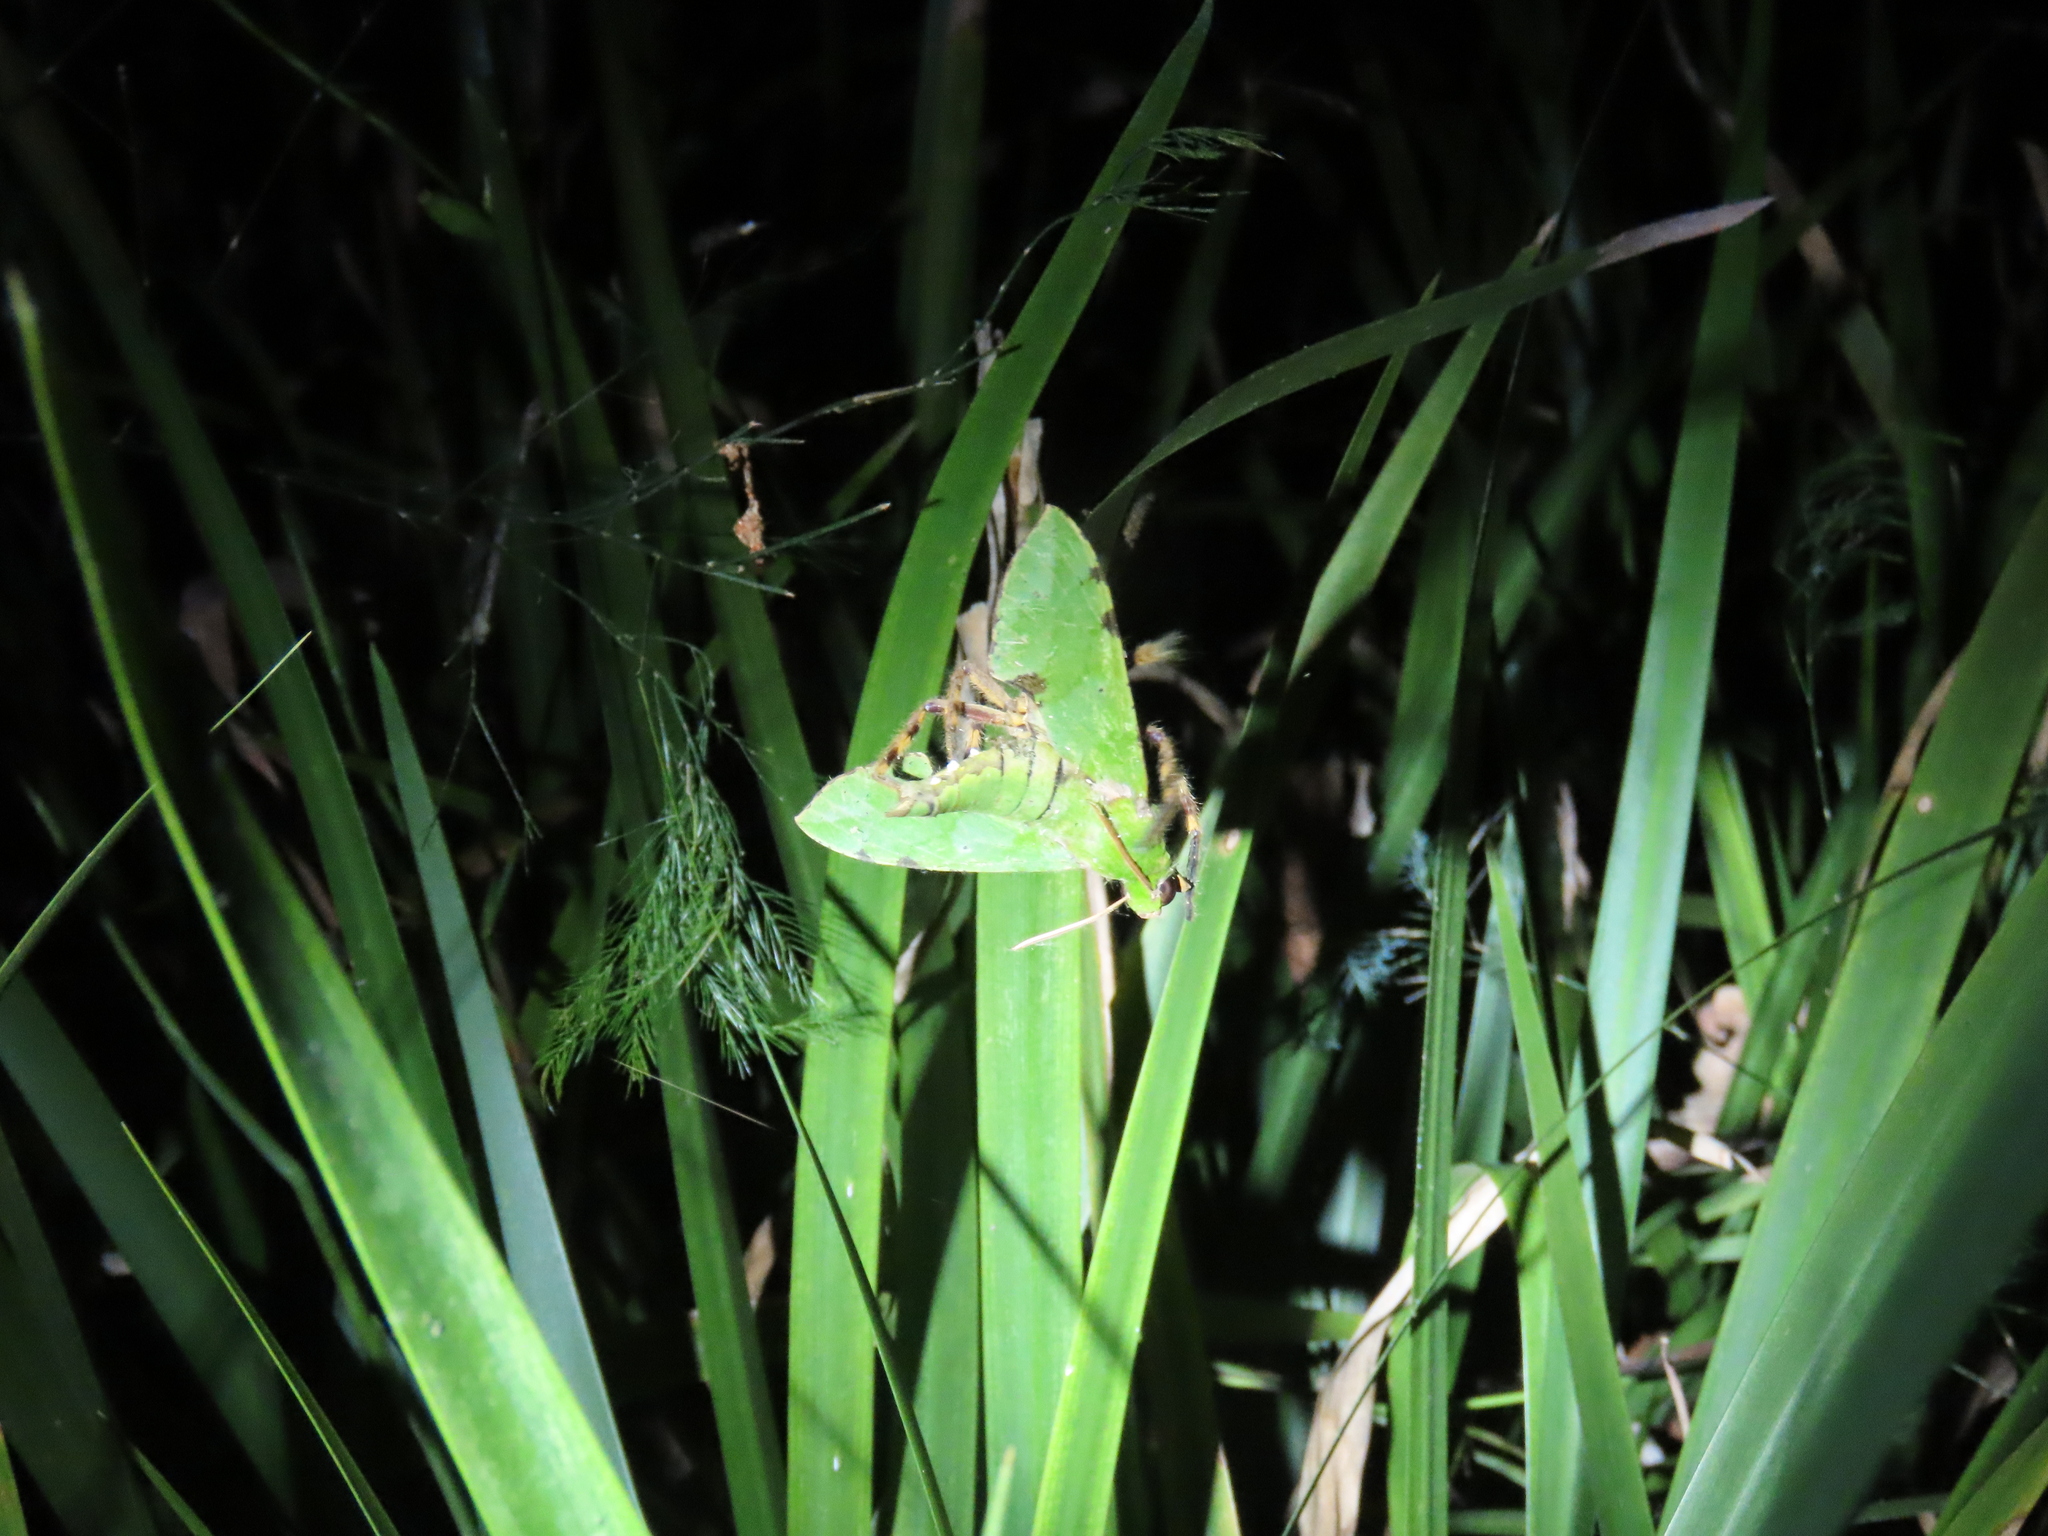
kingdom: Animalia
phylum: Arthropoda
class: Insecta
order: Lepidoptera
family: Sphingidae
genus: Euchloron
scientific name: Euchloron megaera
